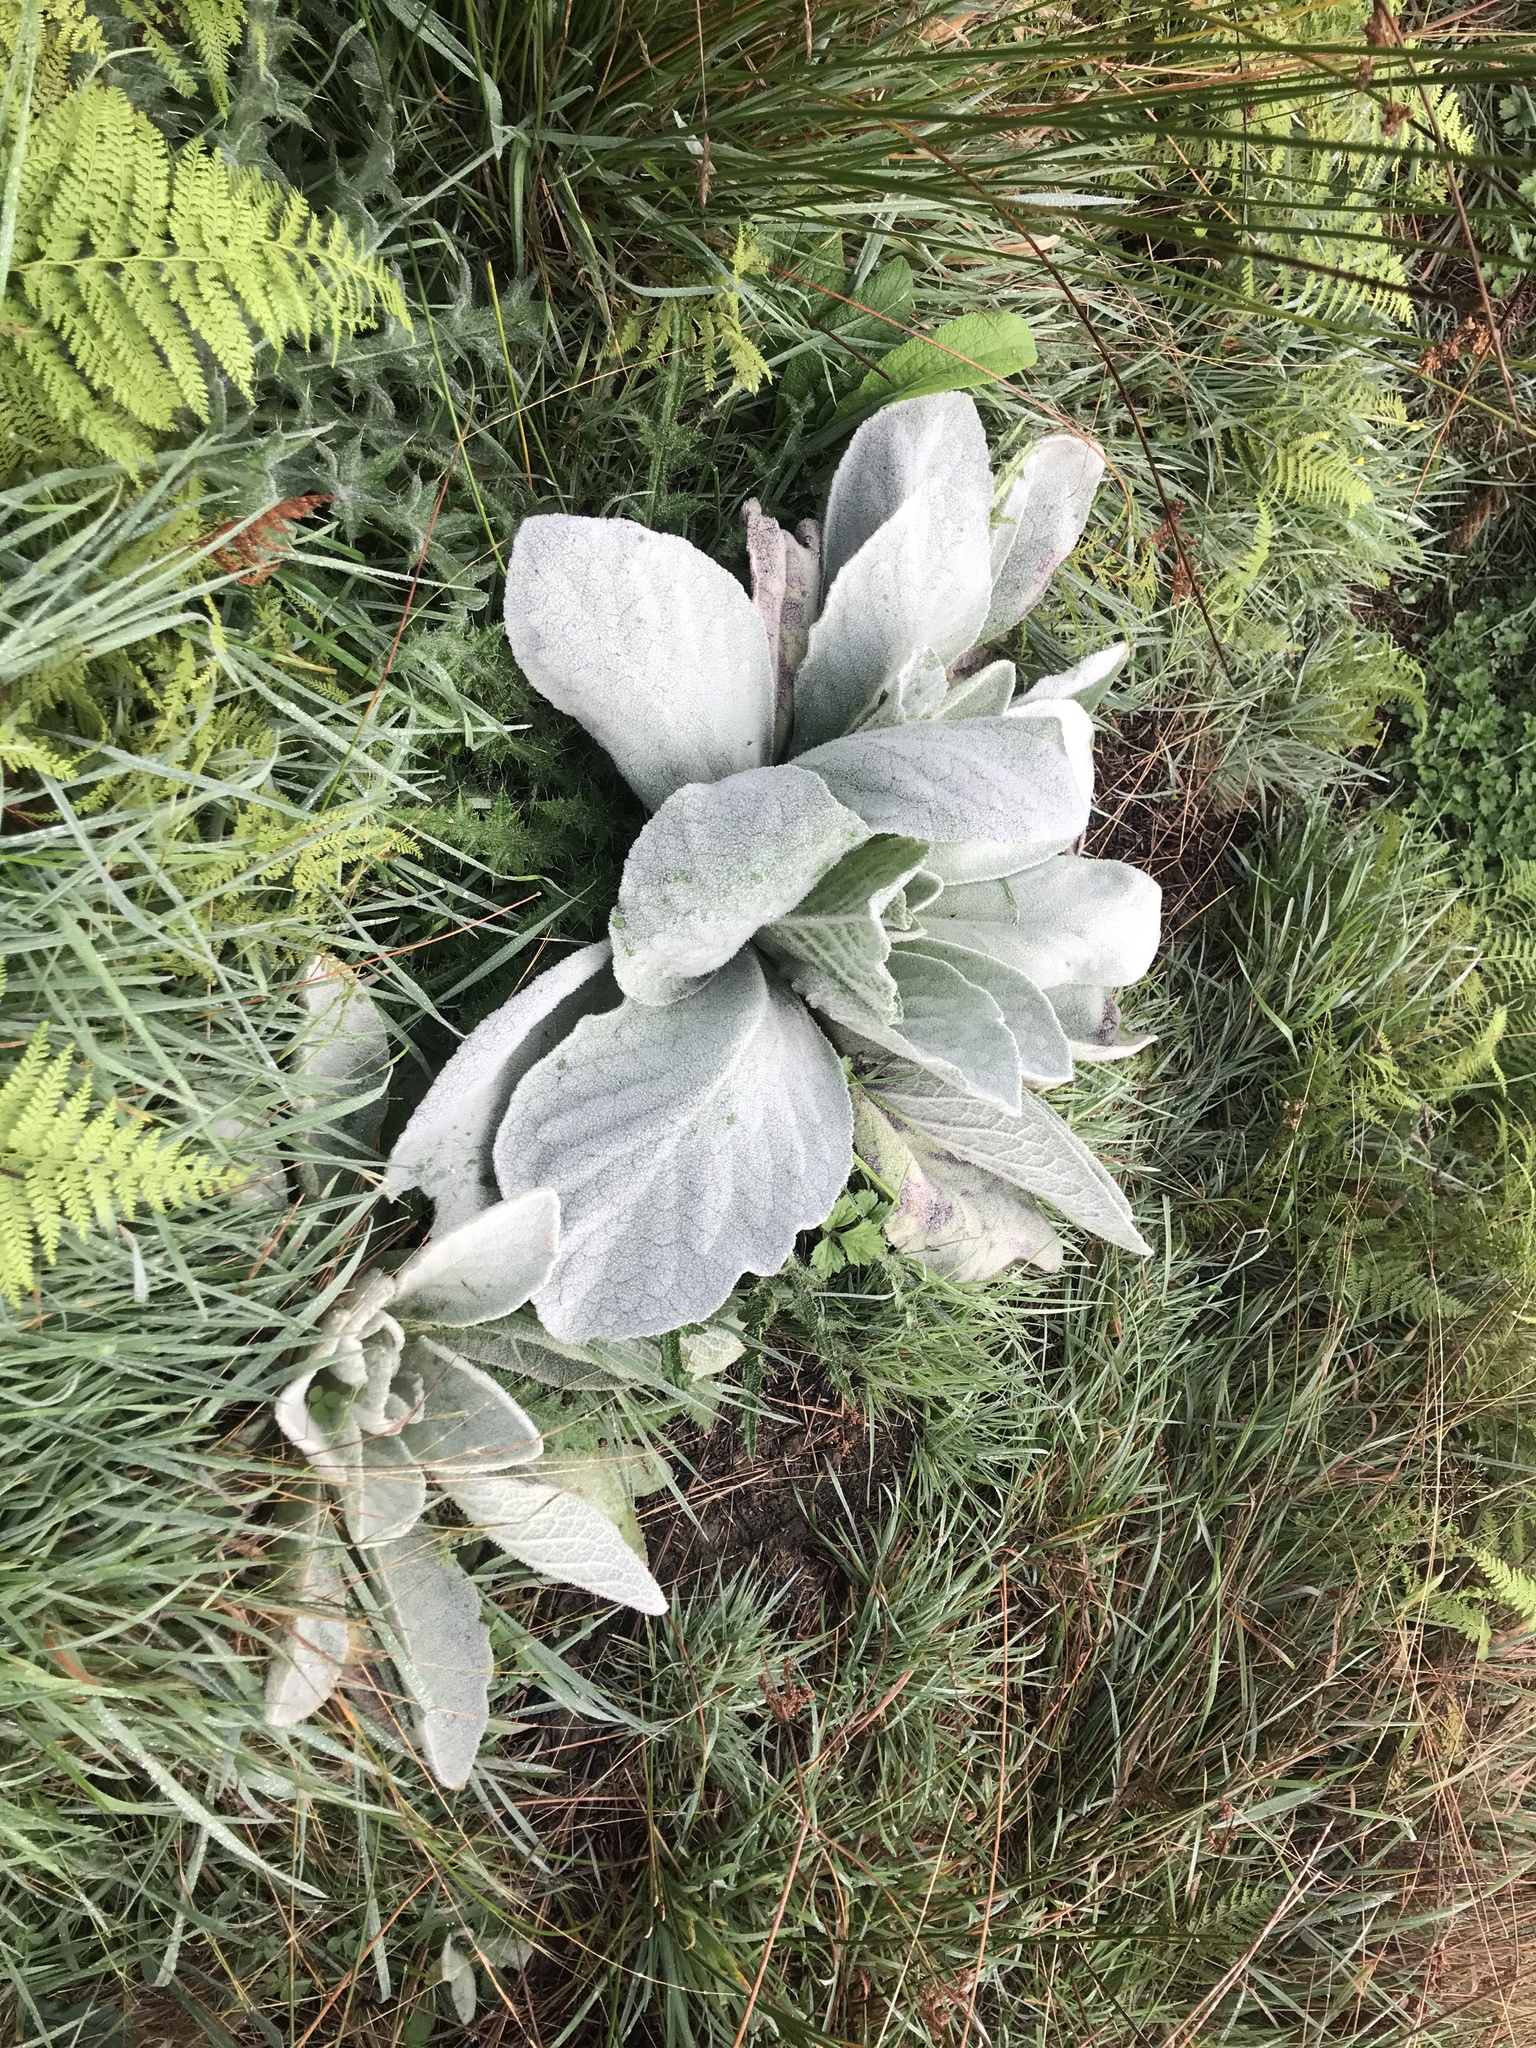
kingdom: Plantae
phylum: Tracheophyta
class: Magnoliopsida
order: Lamiales
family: Scrophulariaceae
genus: Verbascum
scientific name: Verbascum thapsus
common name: Common mullein
